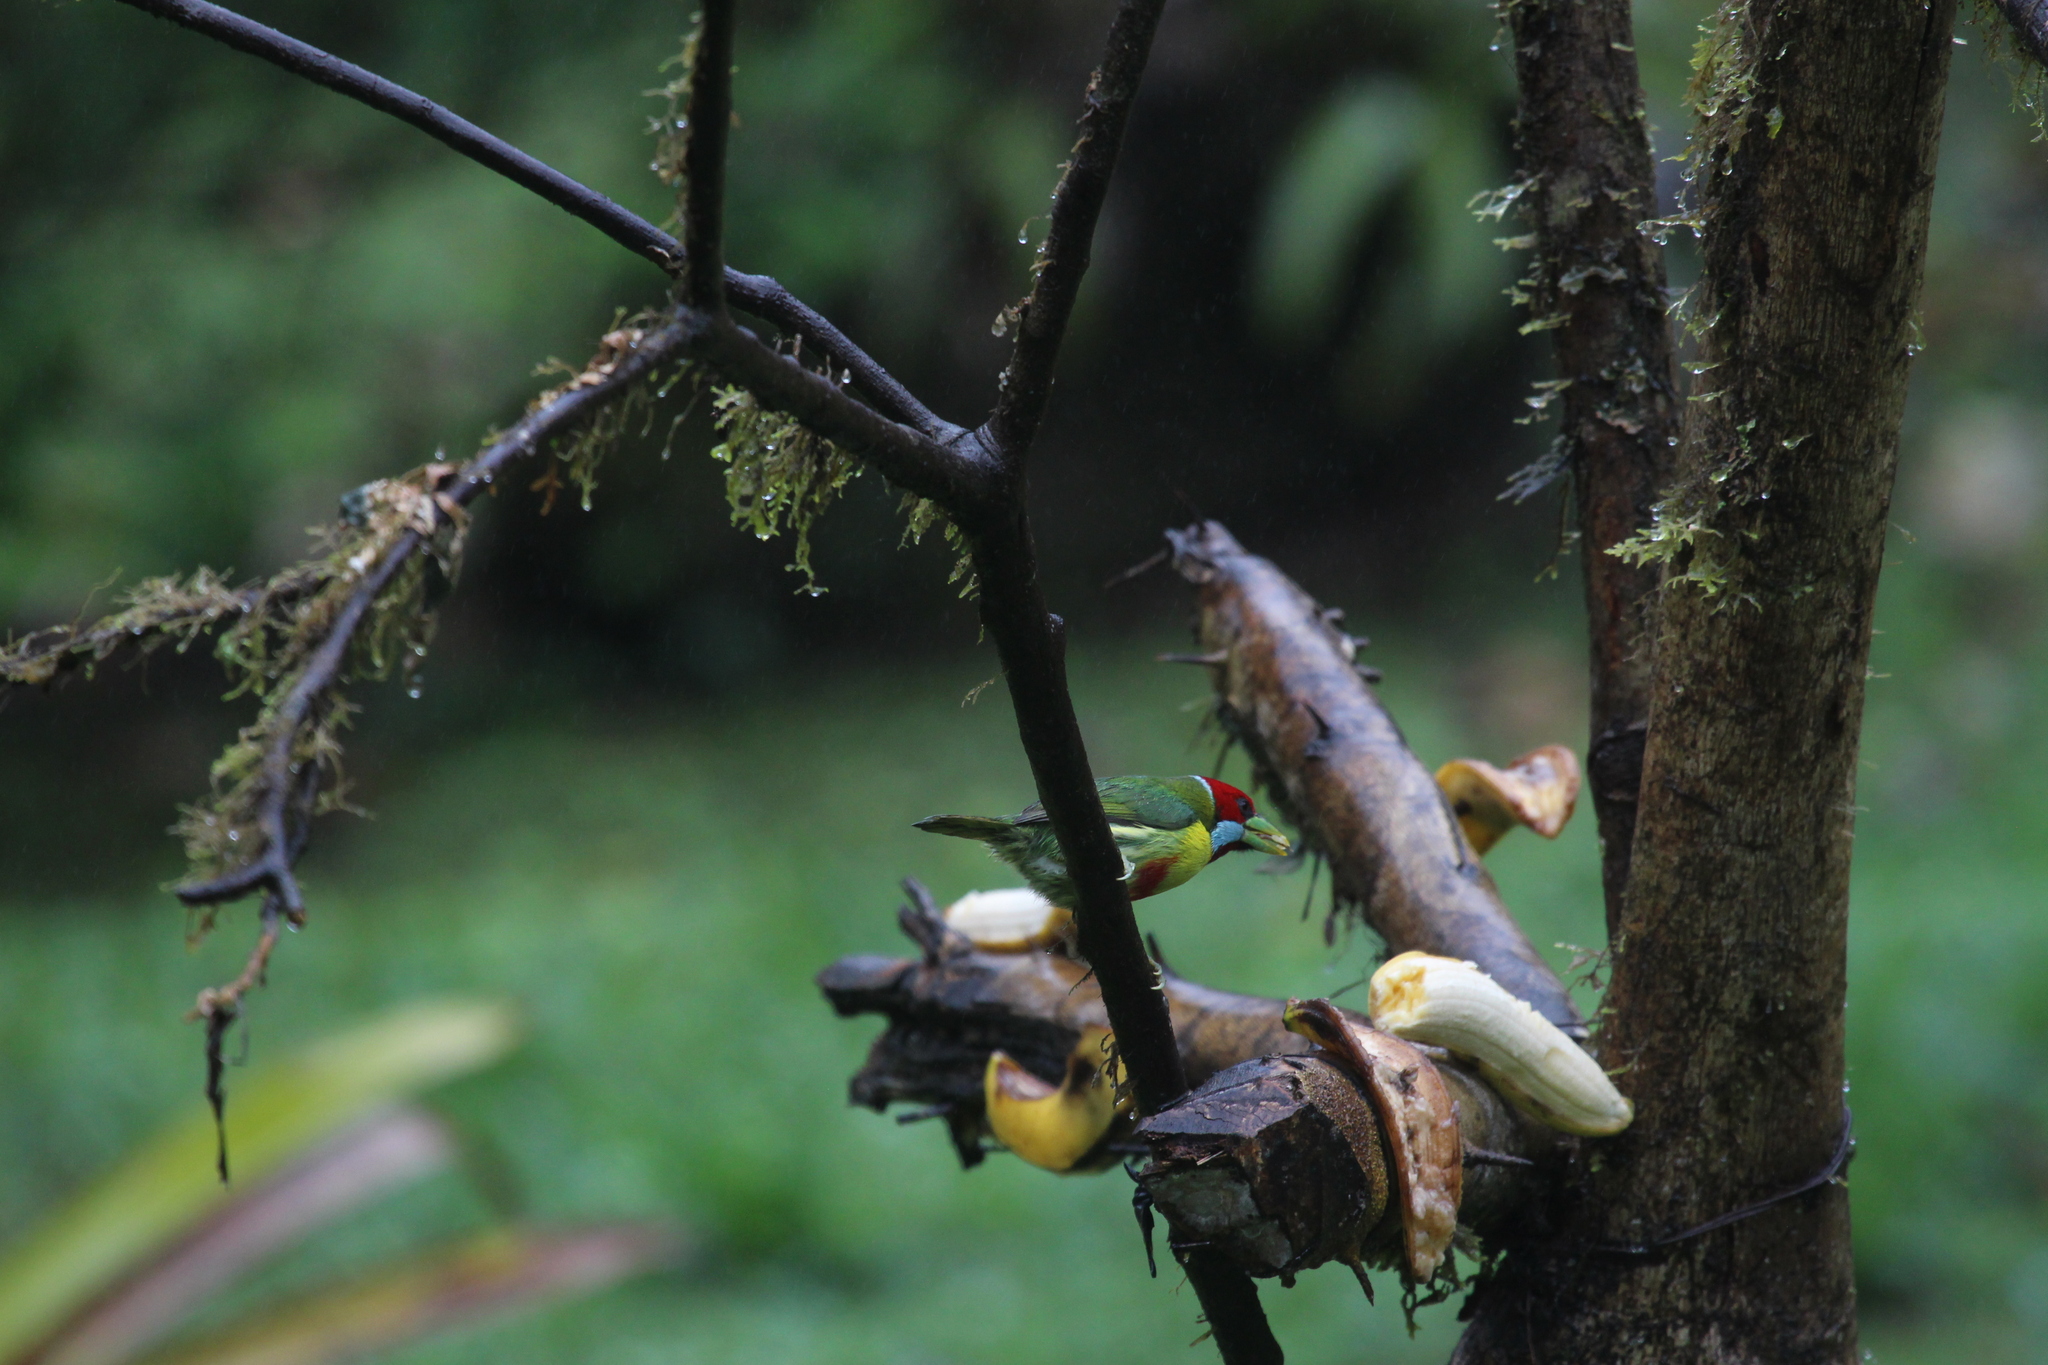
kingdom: Animalia
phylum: Chordata
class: Aves
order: Piciformes
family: Capitonidae
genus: Eubucco
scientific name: Eubucco versicolor
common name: Versicolored barbet
